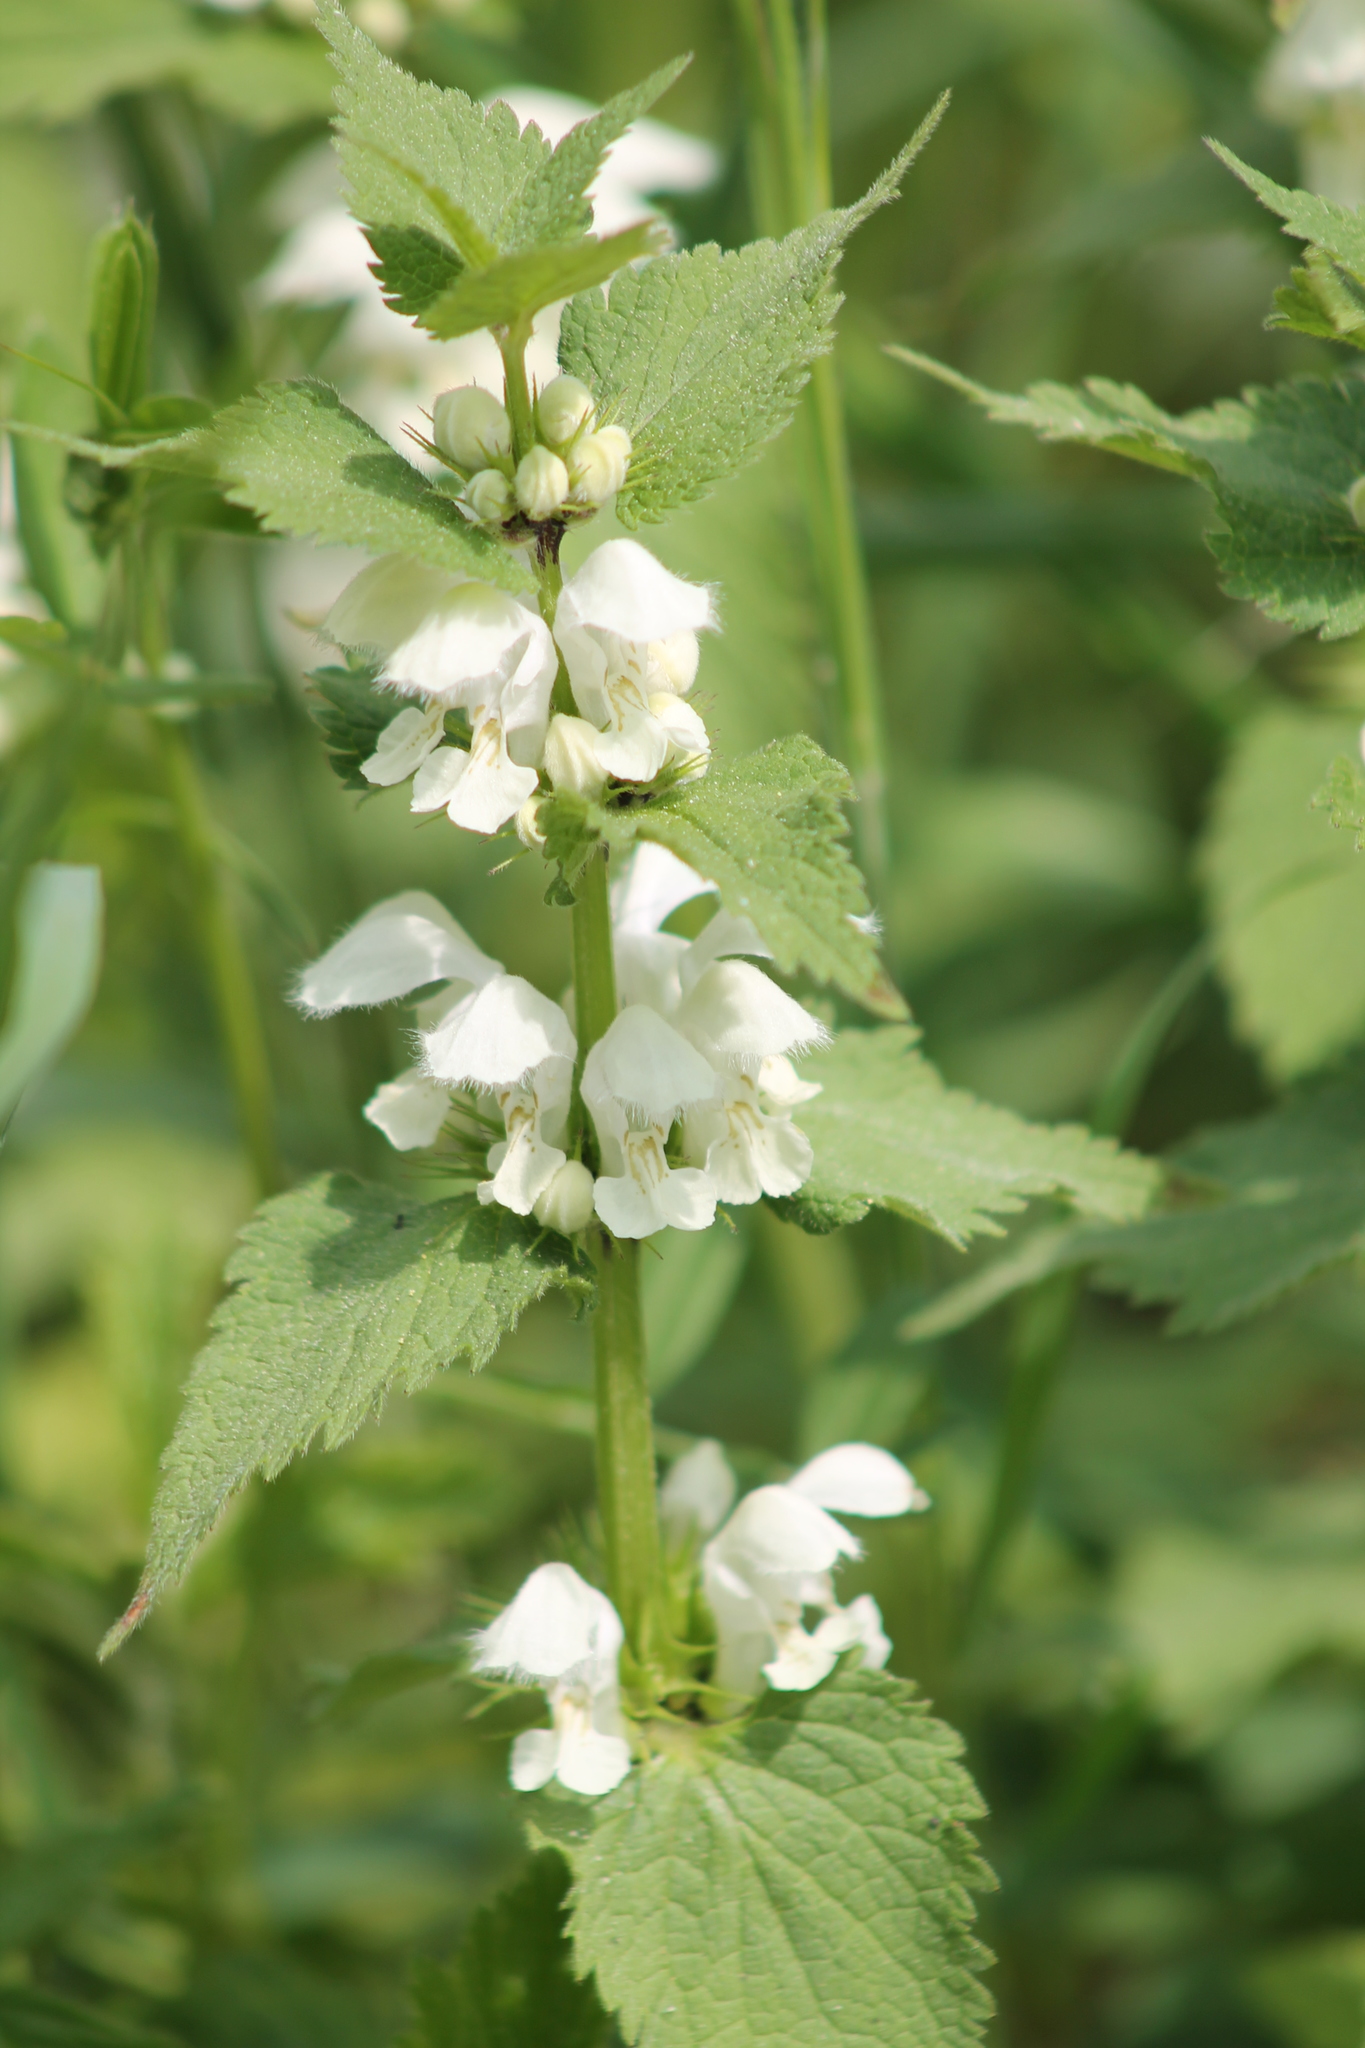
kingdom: Plantae
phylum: Tracheophyta
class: Magnoliopsida
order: Lamiales
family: Lamiaceae
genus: Lamium
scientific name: Lamium album
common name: White dead-nettle
